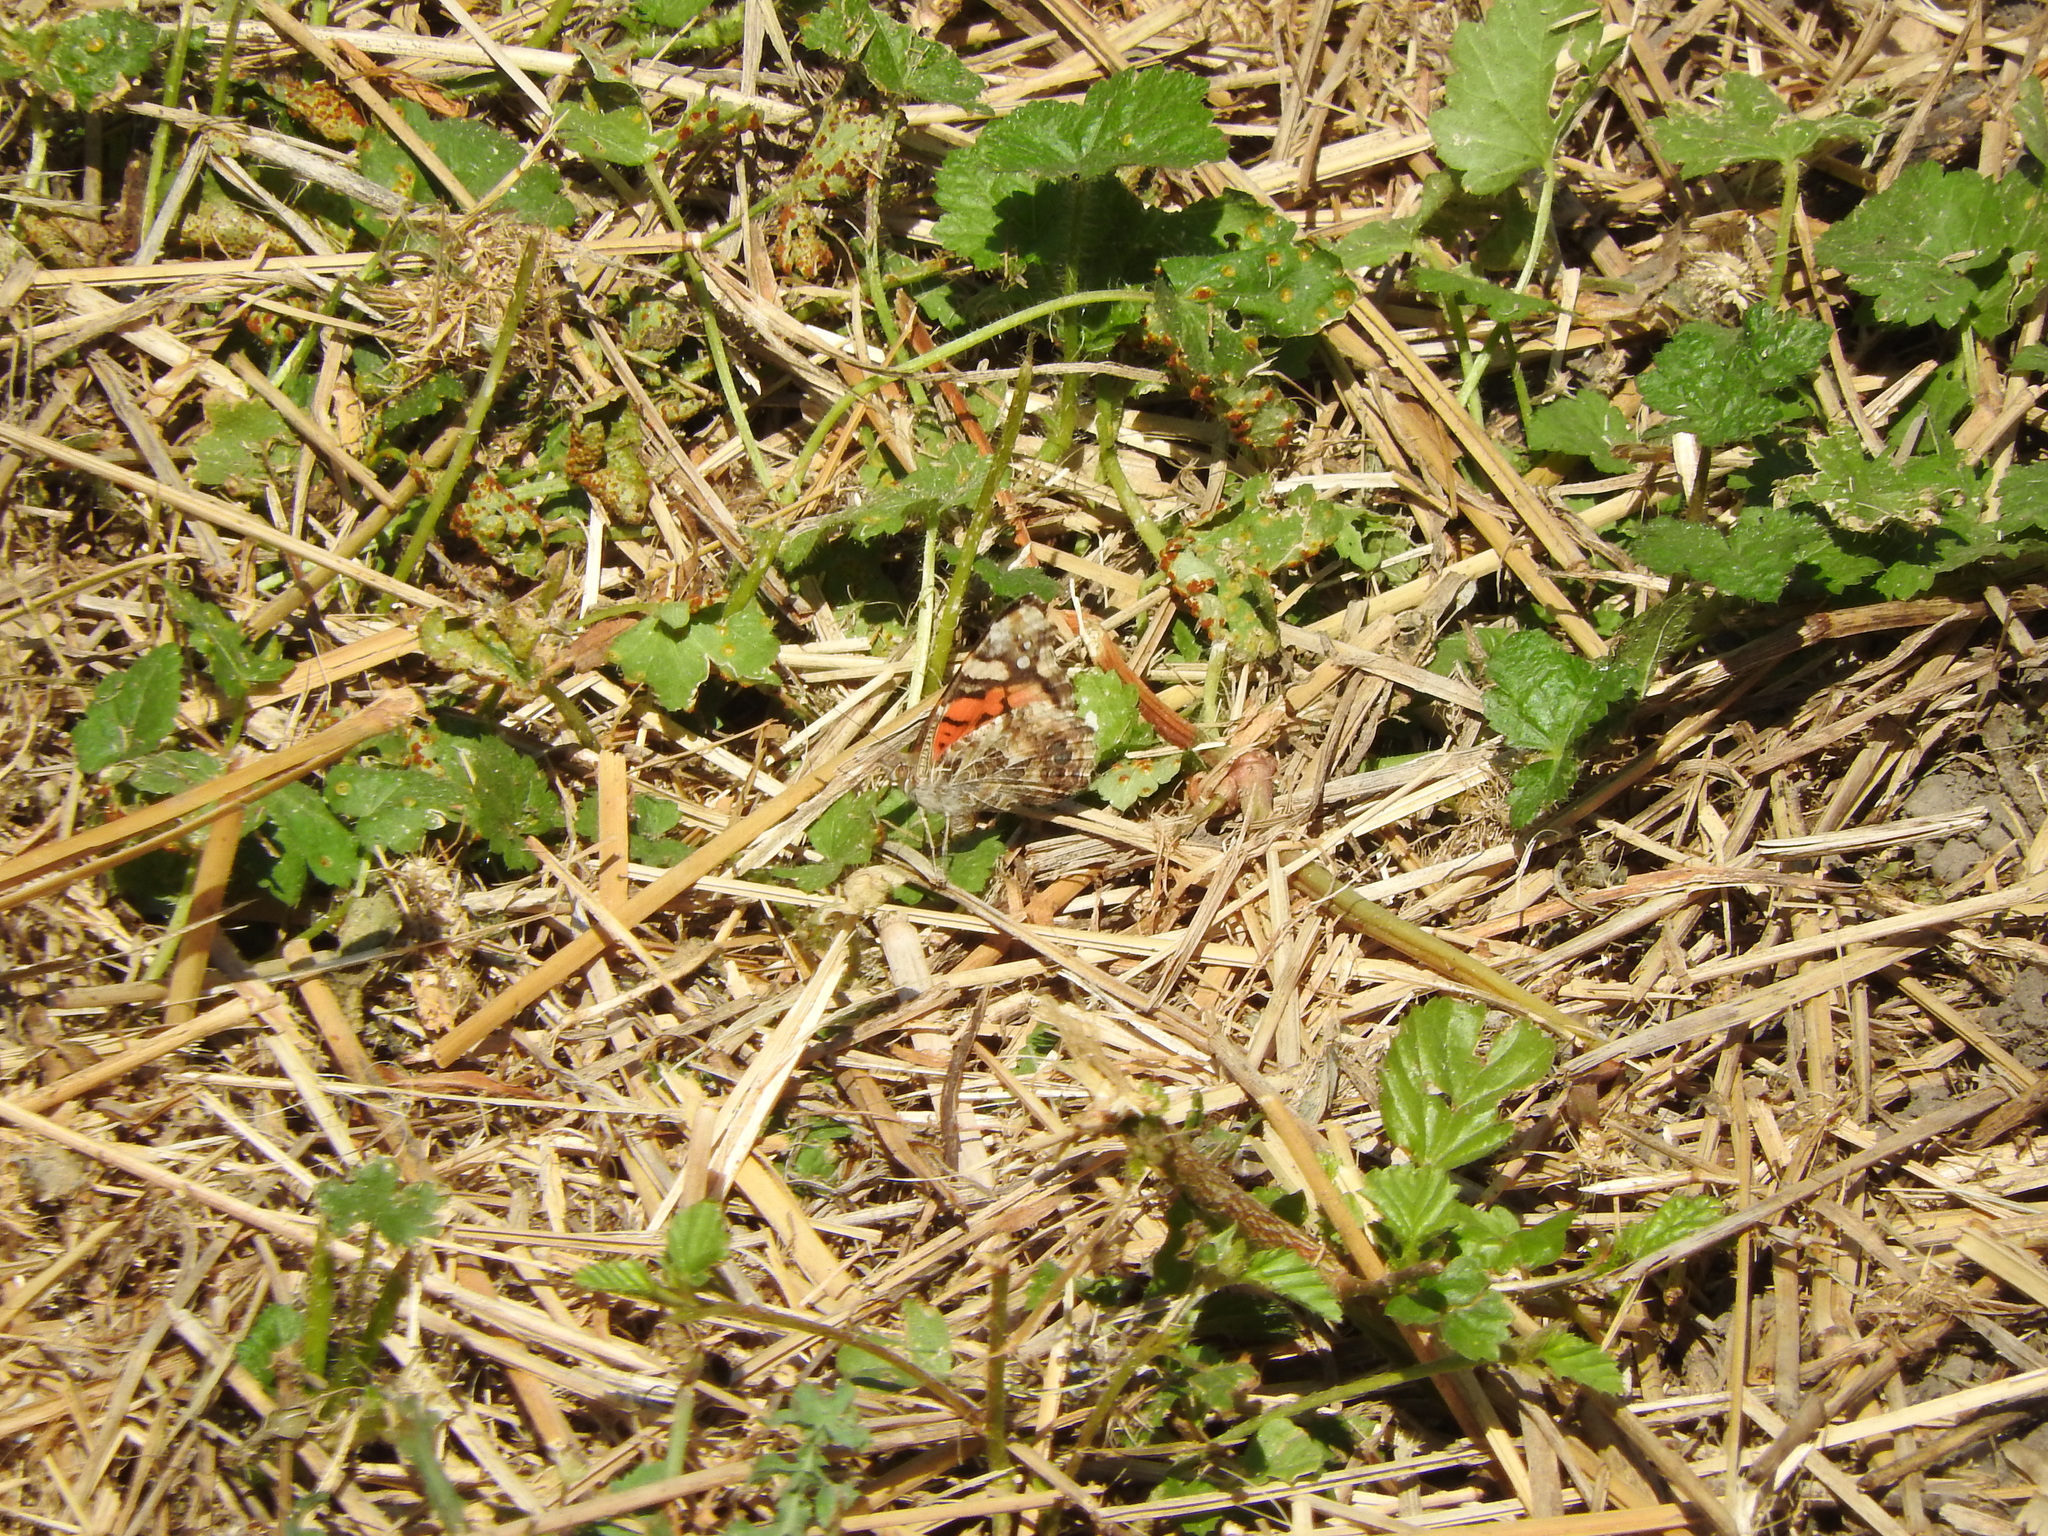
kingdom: Animalia
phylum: Arthropoda
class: Insecta
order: Lepidoptera
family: Nymphalidae
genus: Vanessa
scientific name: Vanessa annabella
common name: West coast lady
